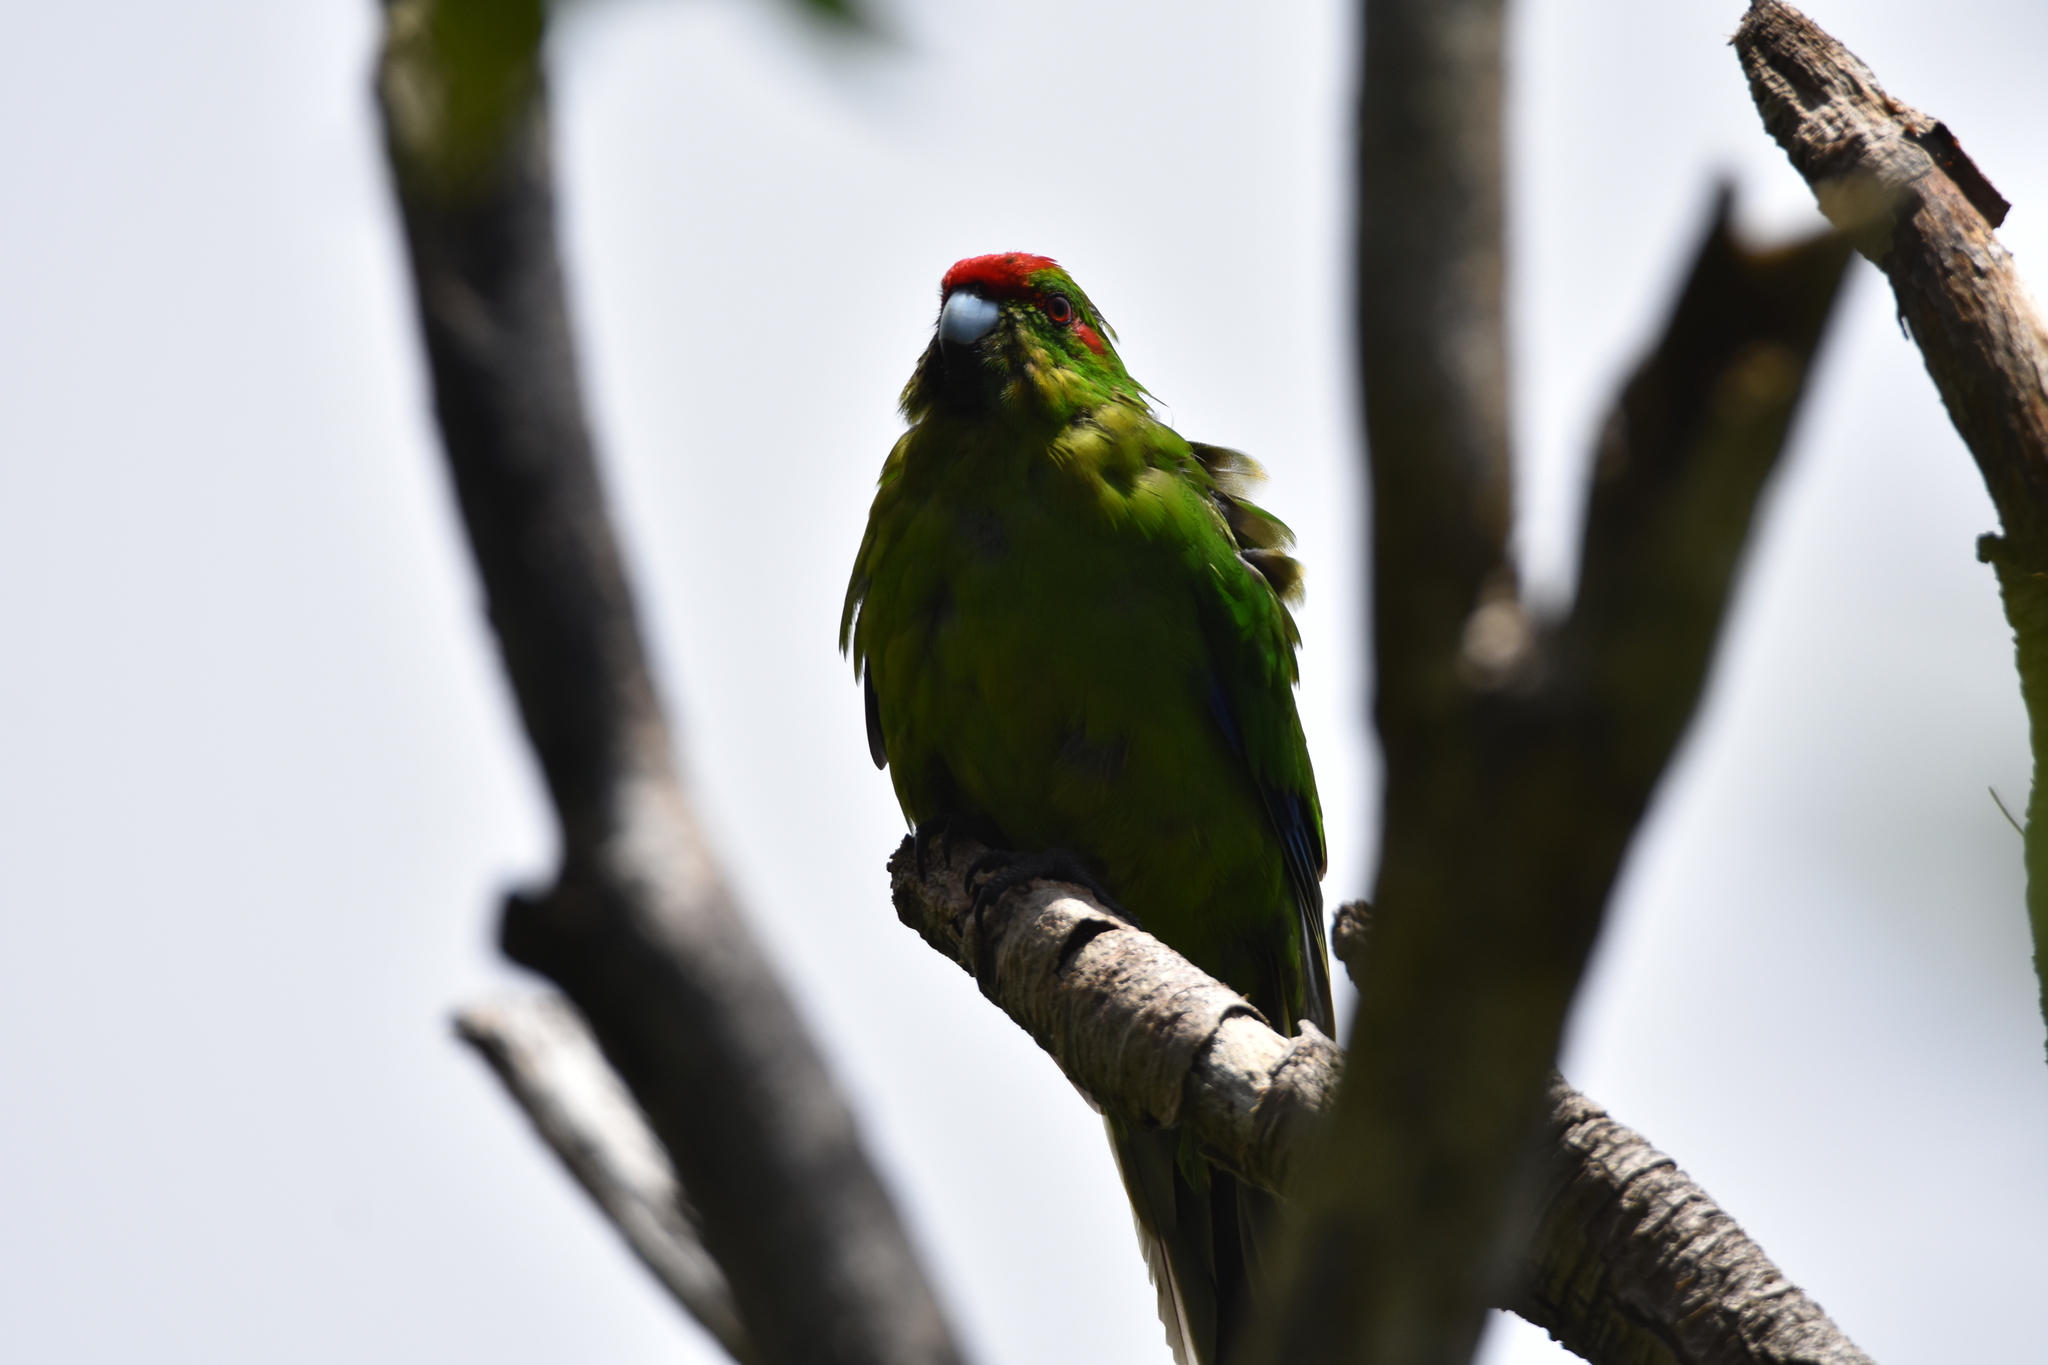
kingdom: Animalia
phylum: Chordata
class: Aves
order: Psittaciformes
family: Psittacidae
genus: Cyanoramphus
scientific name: Cyanoramphus novaezelandiae
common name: Red-fronted parakeet
